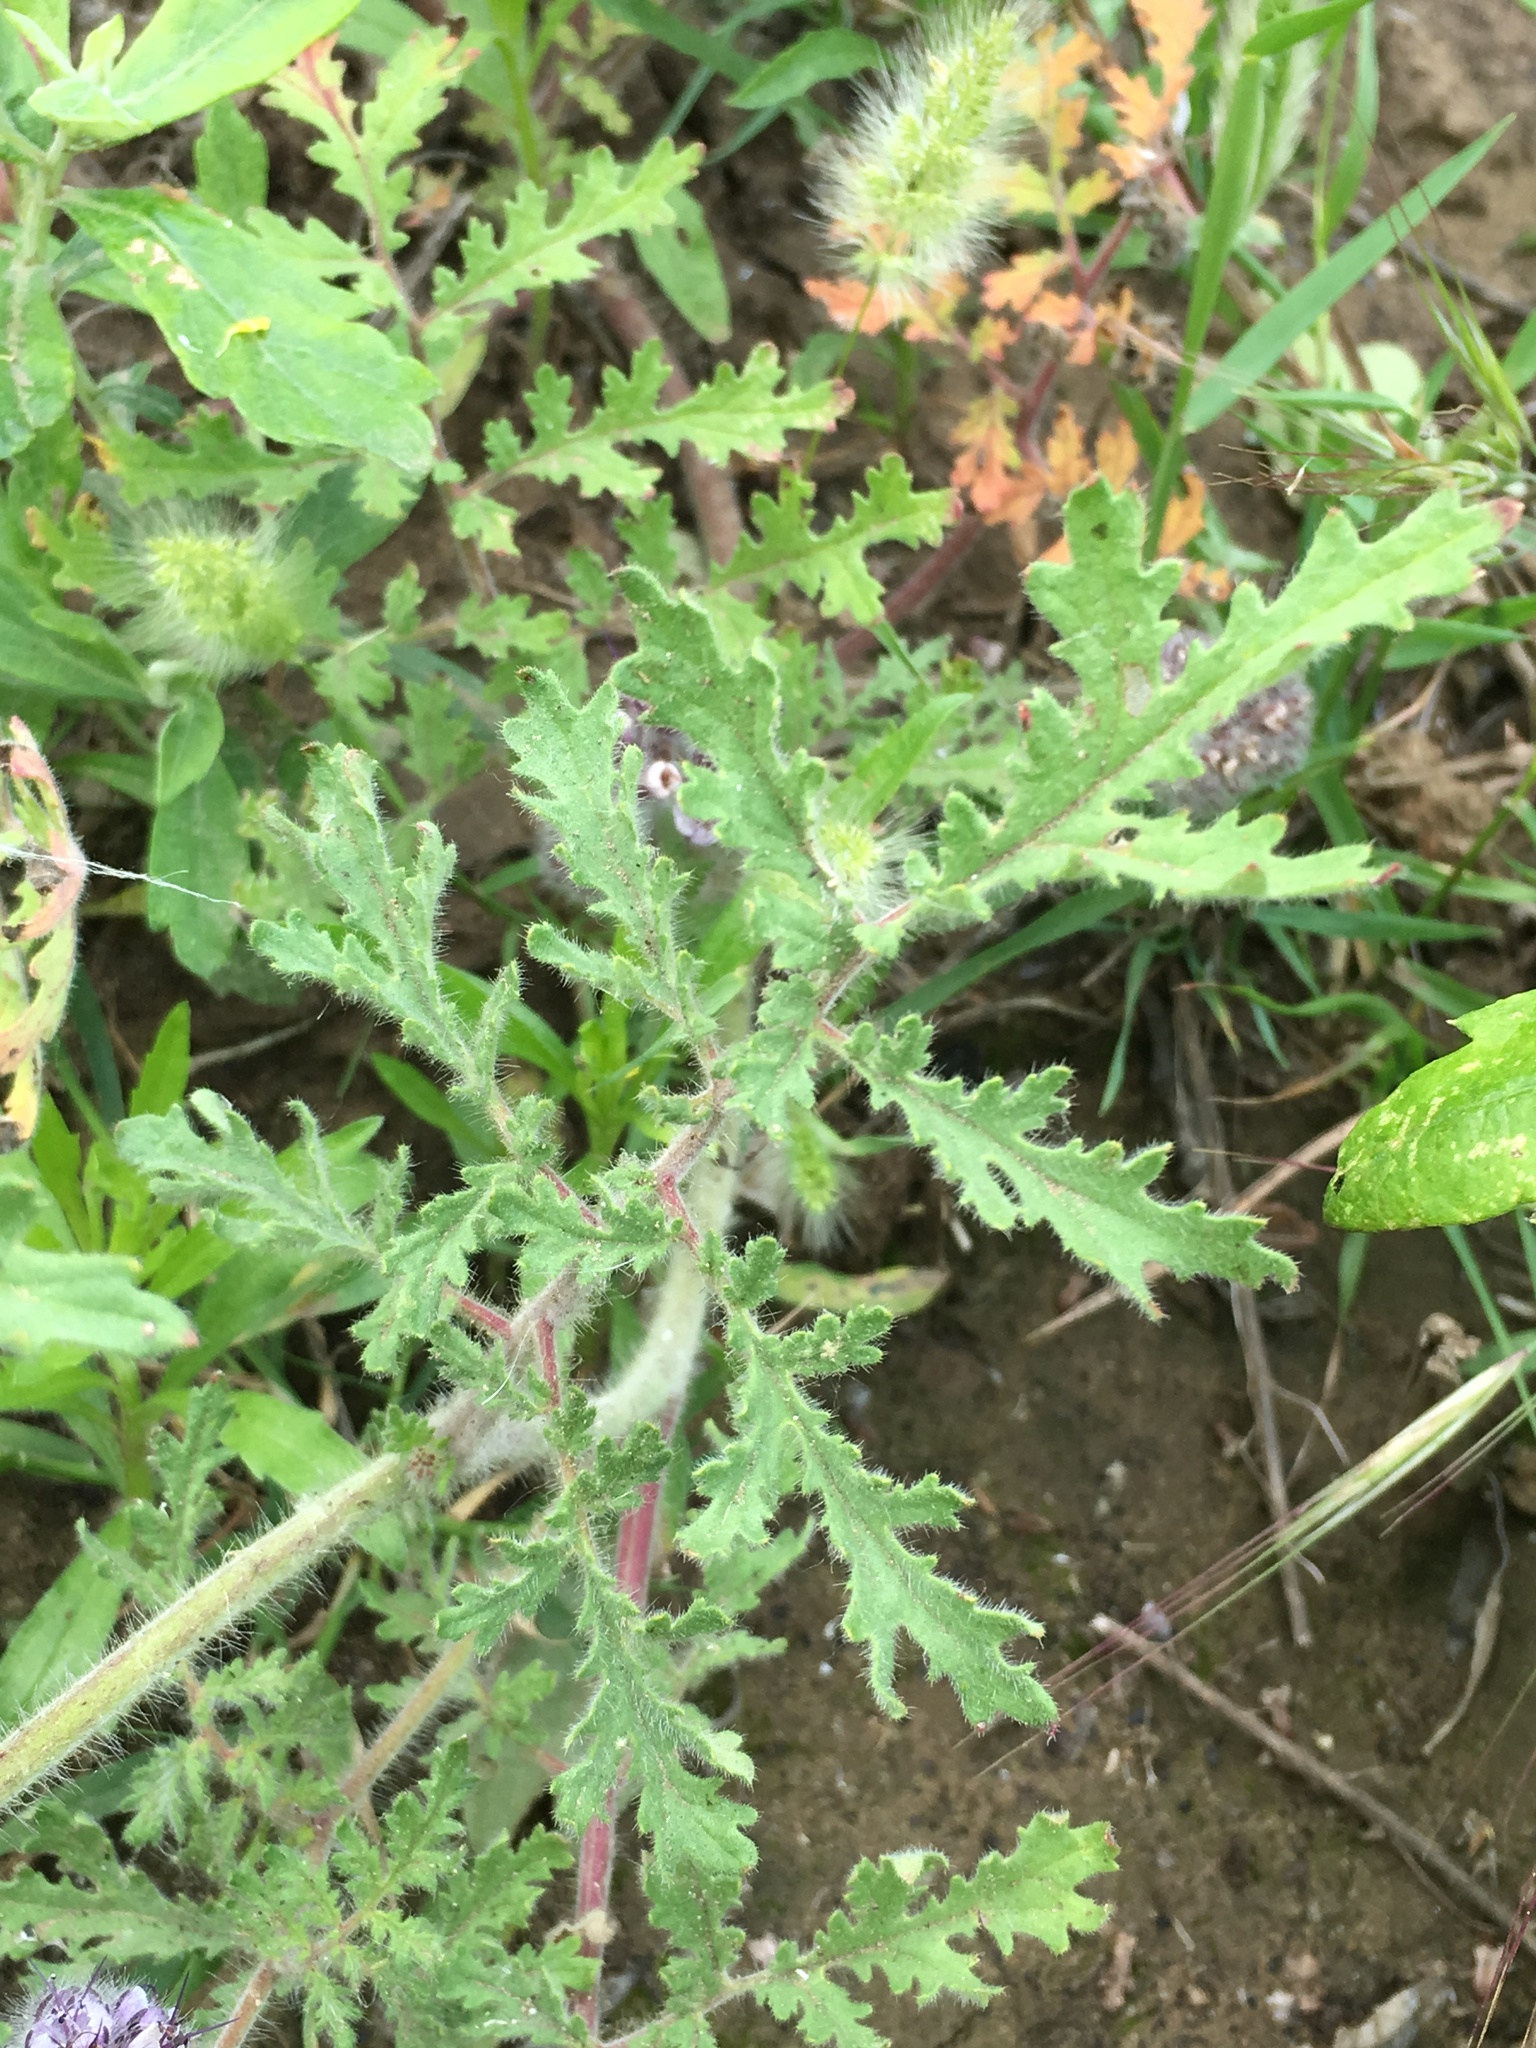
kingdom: Plantae
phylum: Tracheophyta
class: Magnoliopsida
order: Boraginales
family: Hydrophyllaceae
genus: Phacelia
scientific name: Phacelia hubbyi
